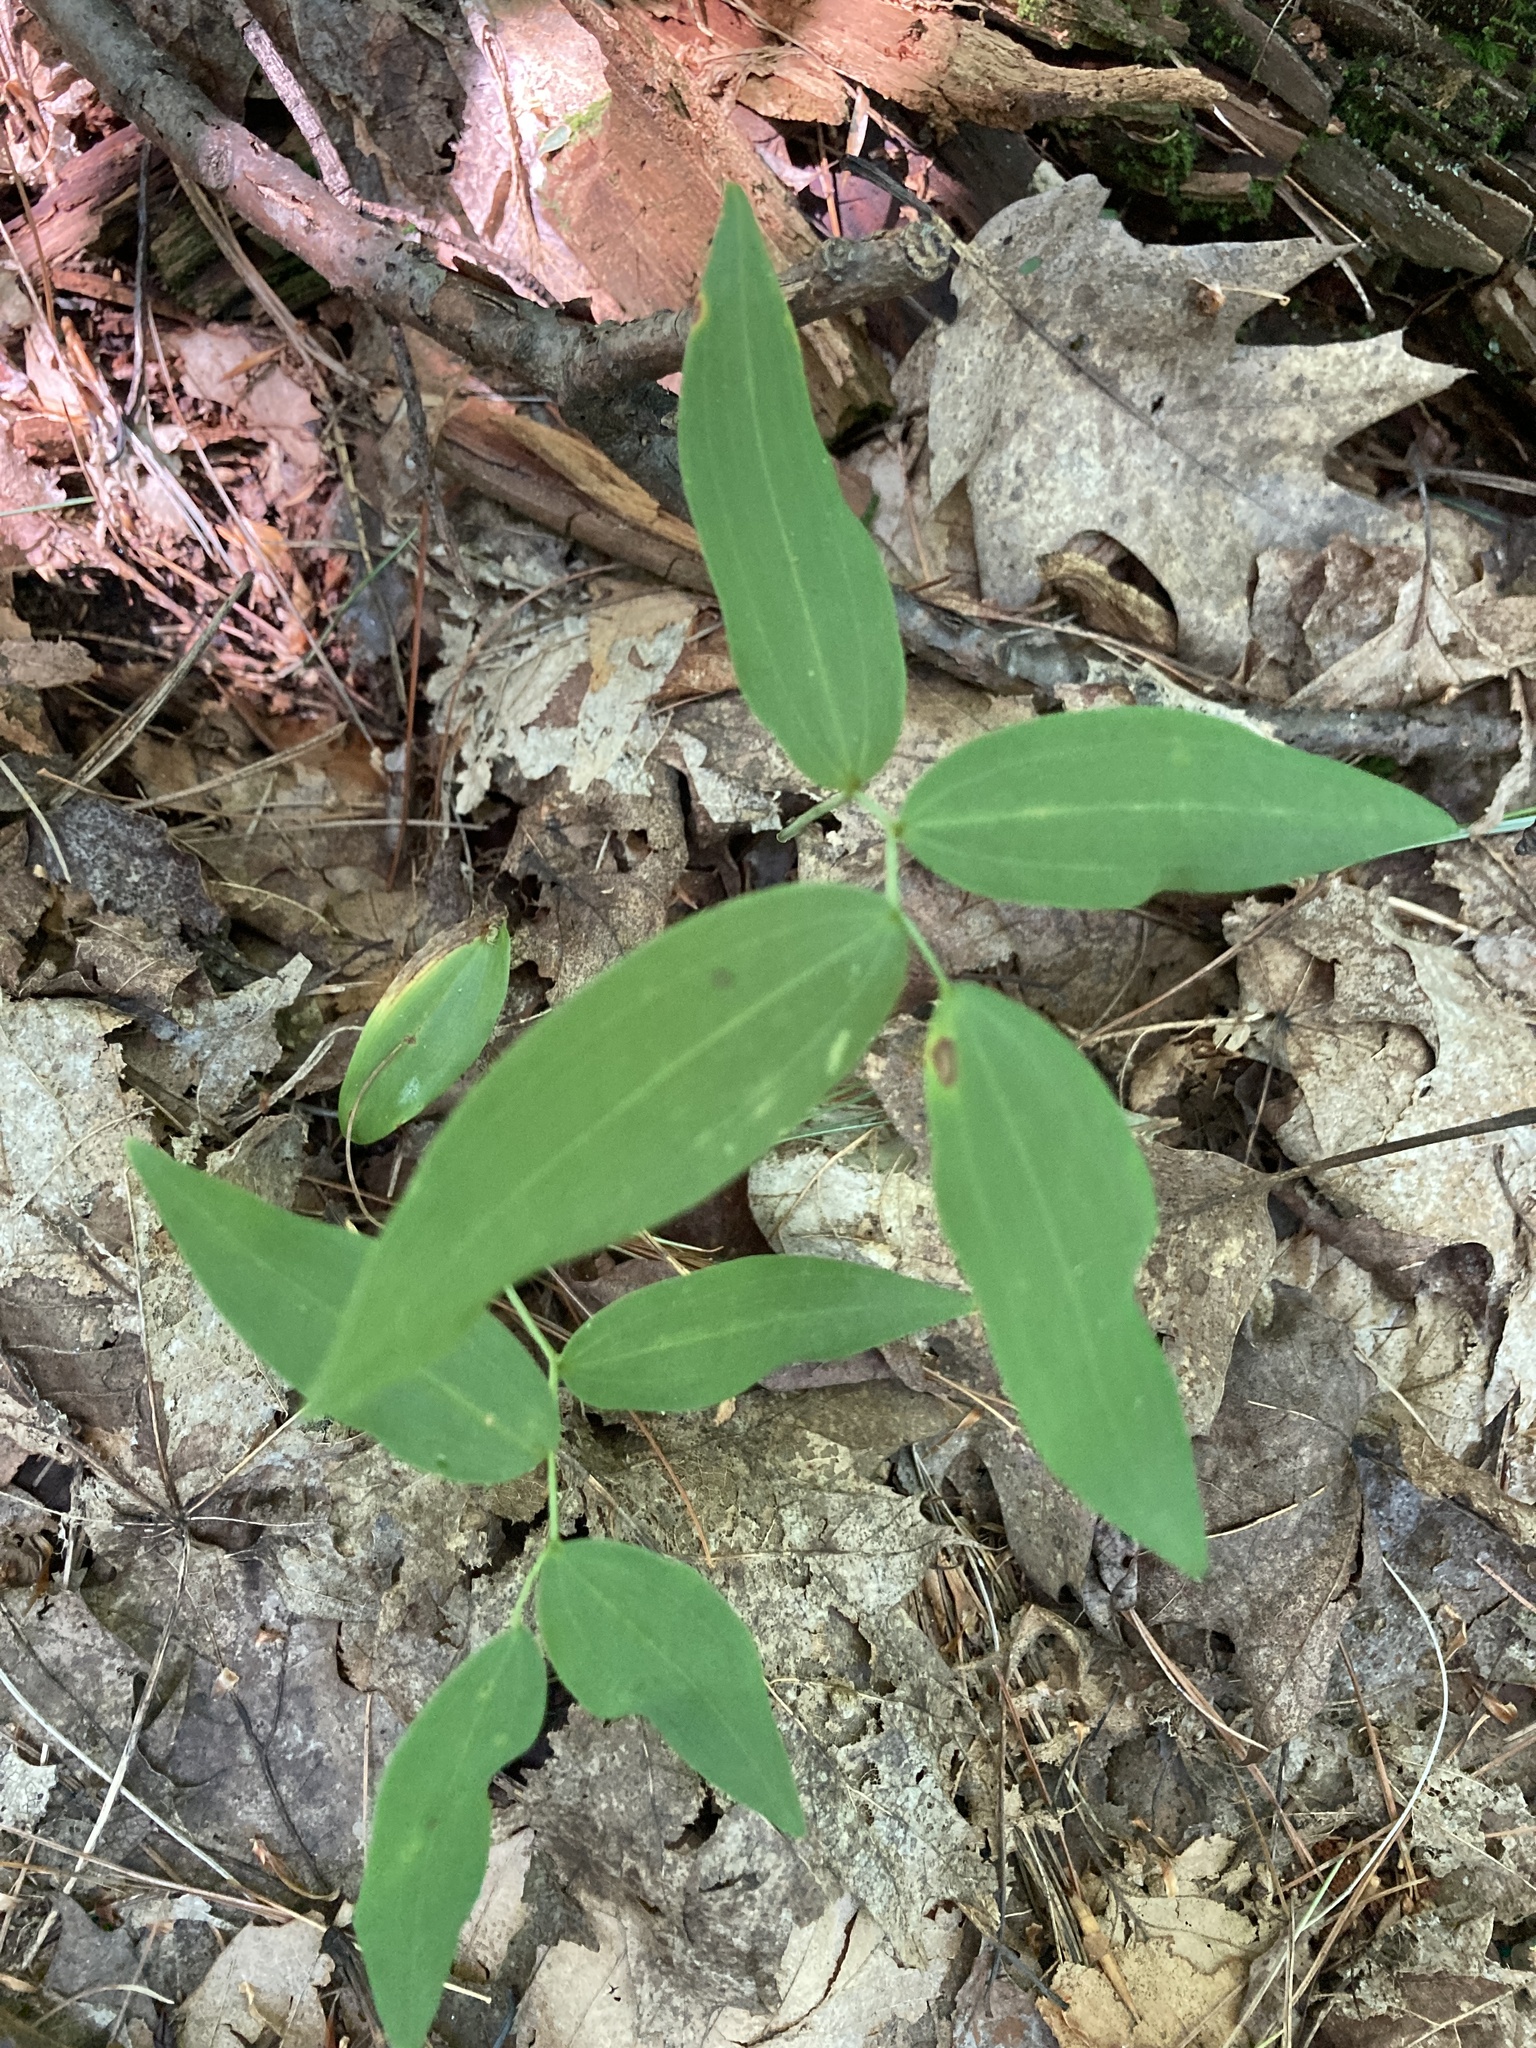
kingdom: Plantae
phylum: Tracheophyta
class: Liliopsida
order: Asparagales
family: Asparagaceae
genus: Polygonatum
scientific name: Polygonatum pubescens
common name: Downy solomon's seal
